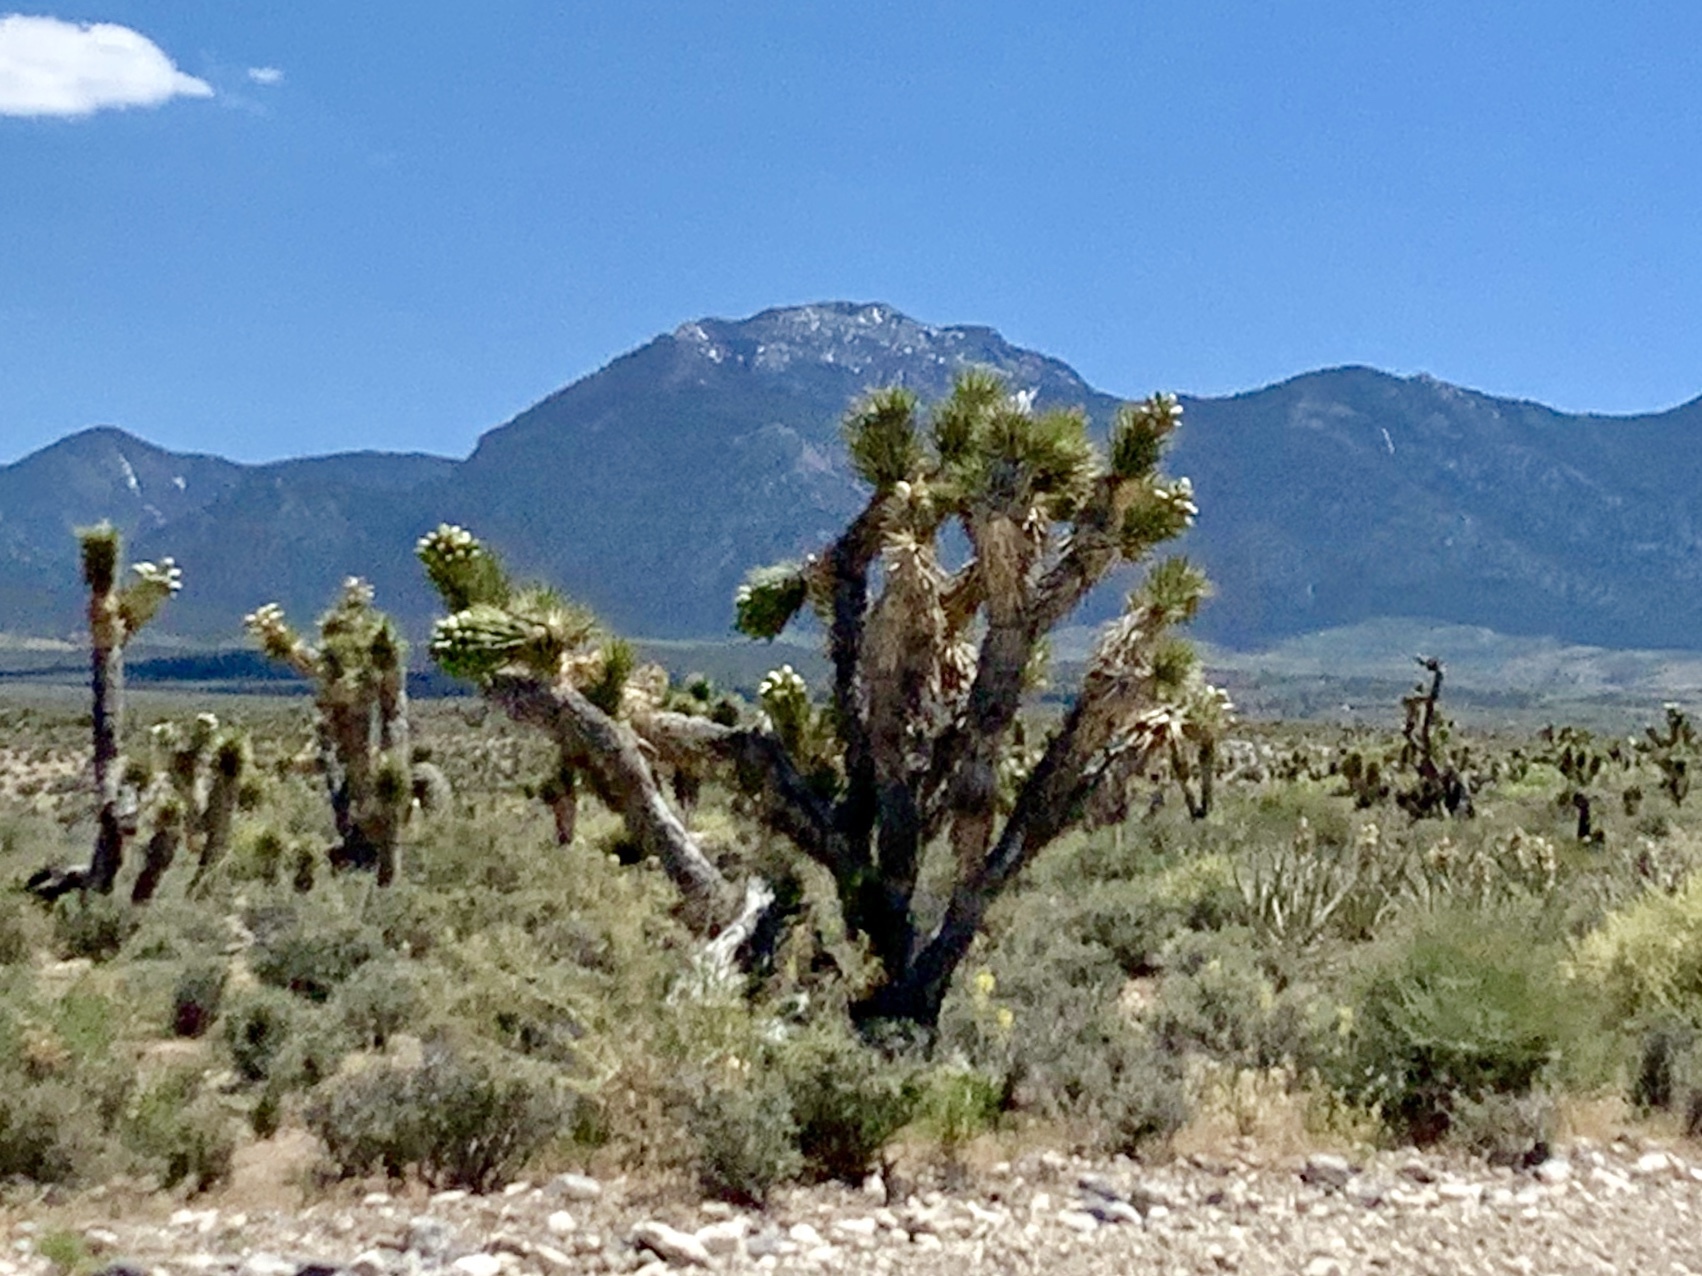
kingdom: Plantae
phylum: Tracheophyta
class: Liliopsida
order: Asparagales
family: Asparagaceae
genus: Yucca
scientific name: Yucca brevifolia
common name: Joshua tree
